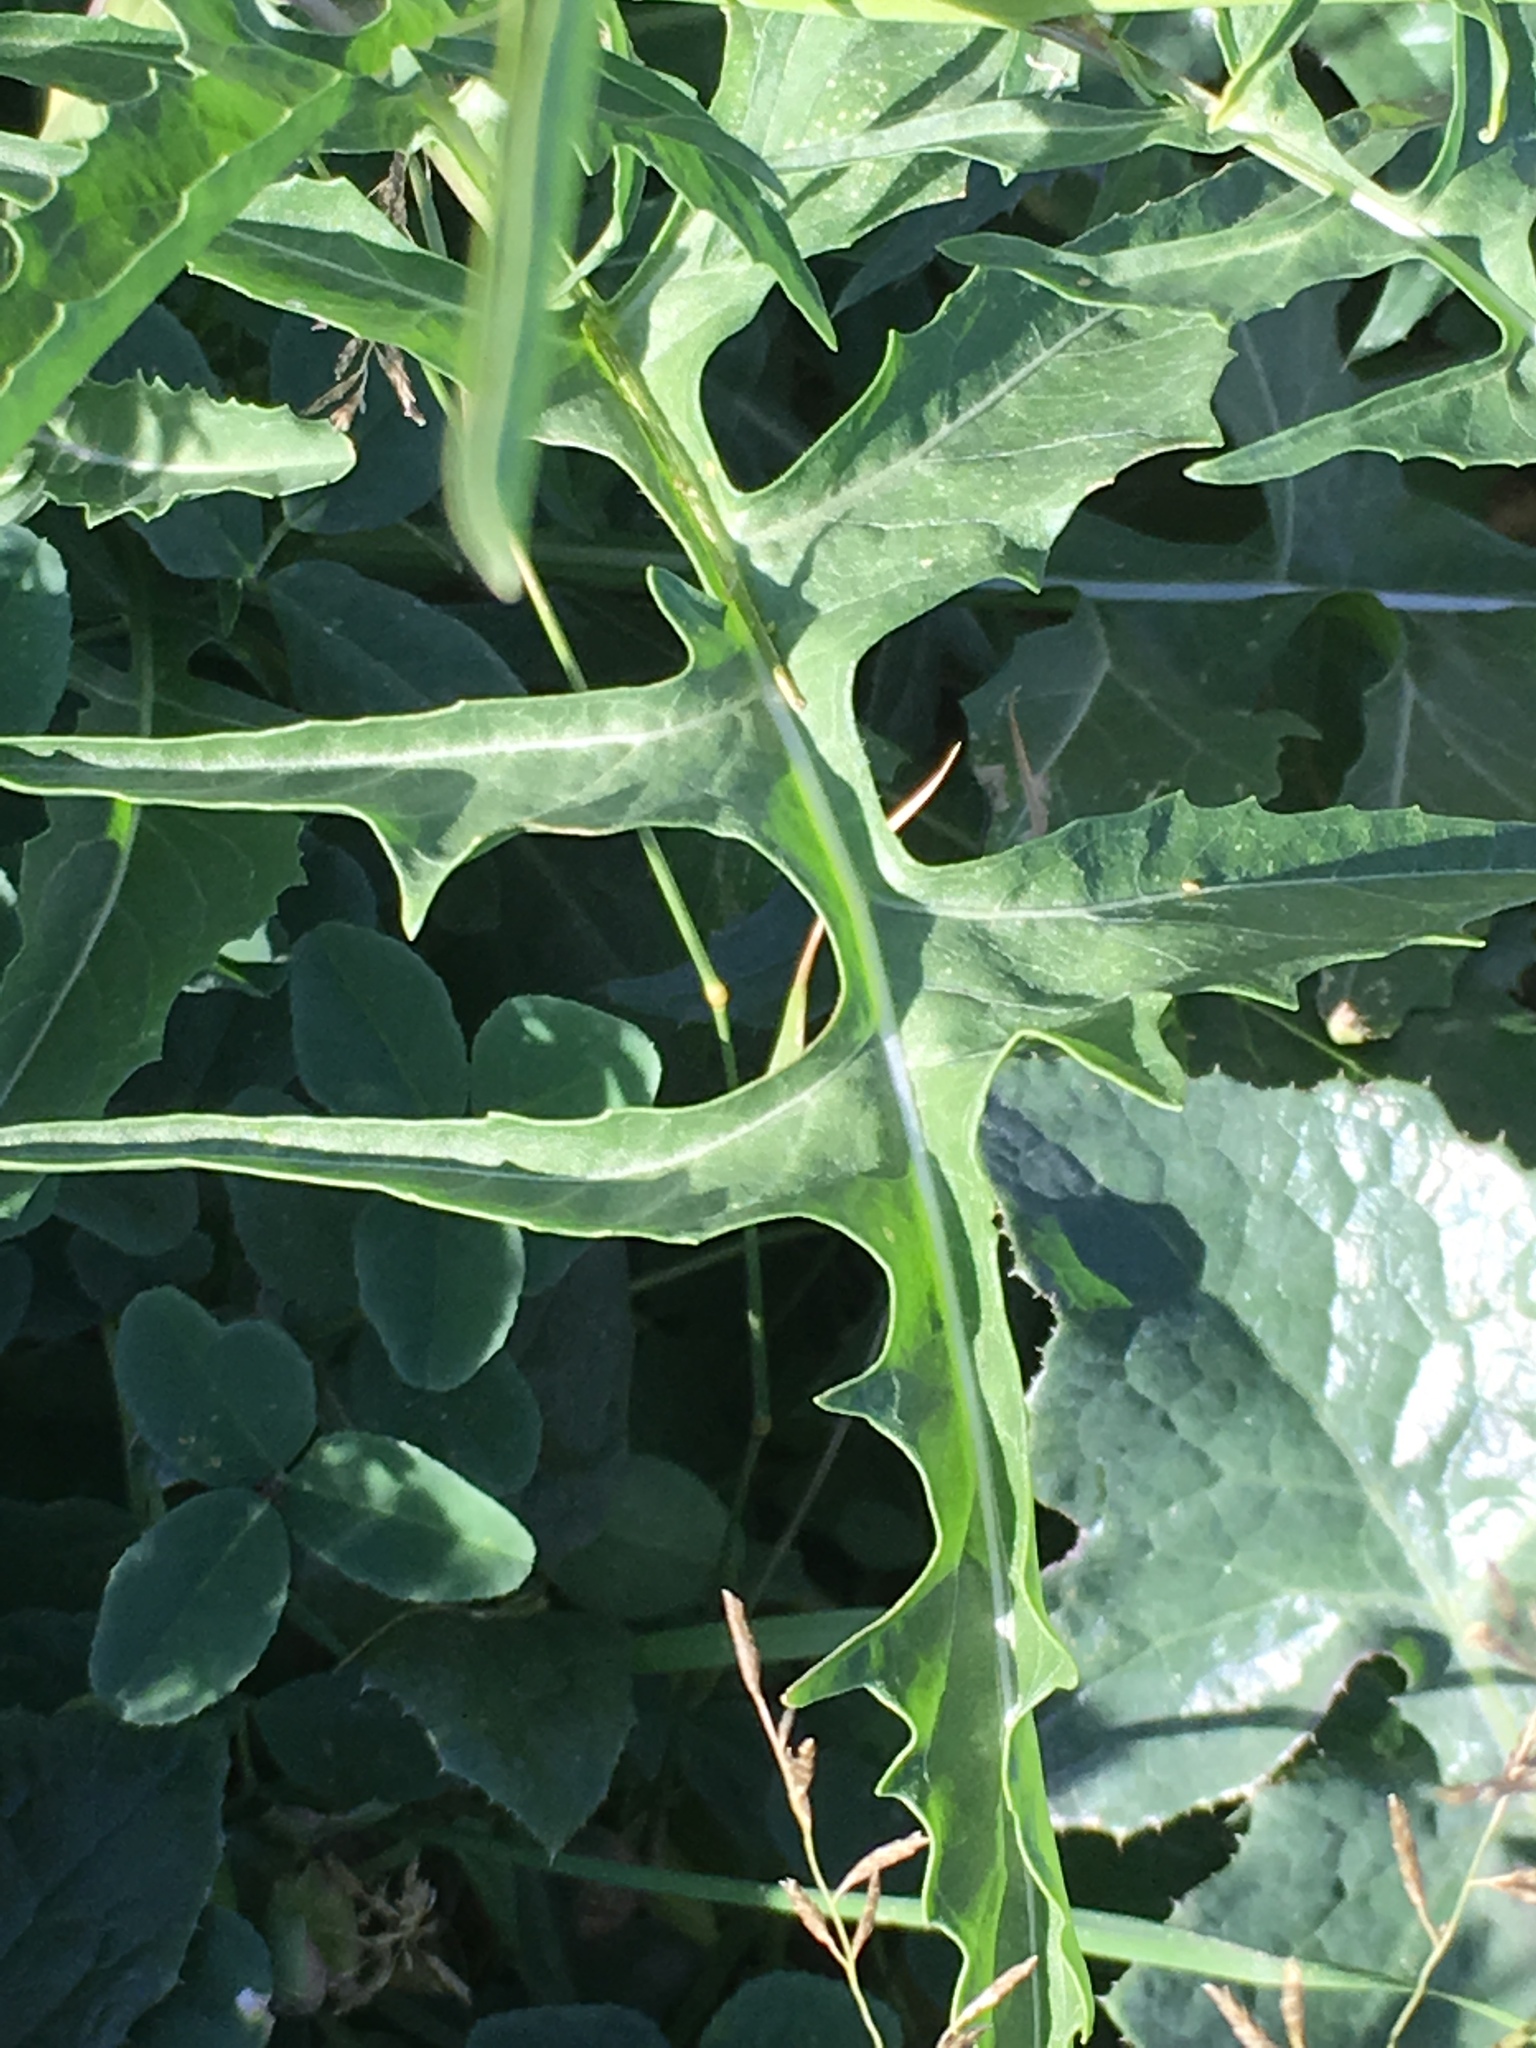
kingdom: Plantae
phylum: Tracheophyta
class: Magnoliopsida
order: Brassicales
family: Brassicaceae
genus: Sisymbrium
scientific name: Sisymbrium irio
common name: London rocket
